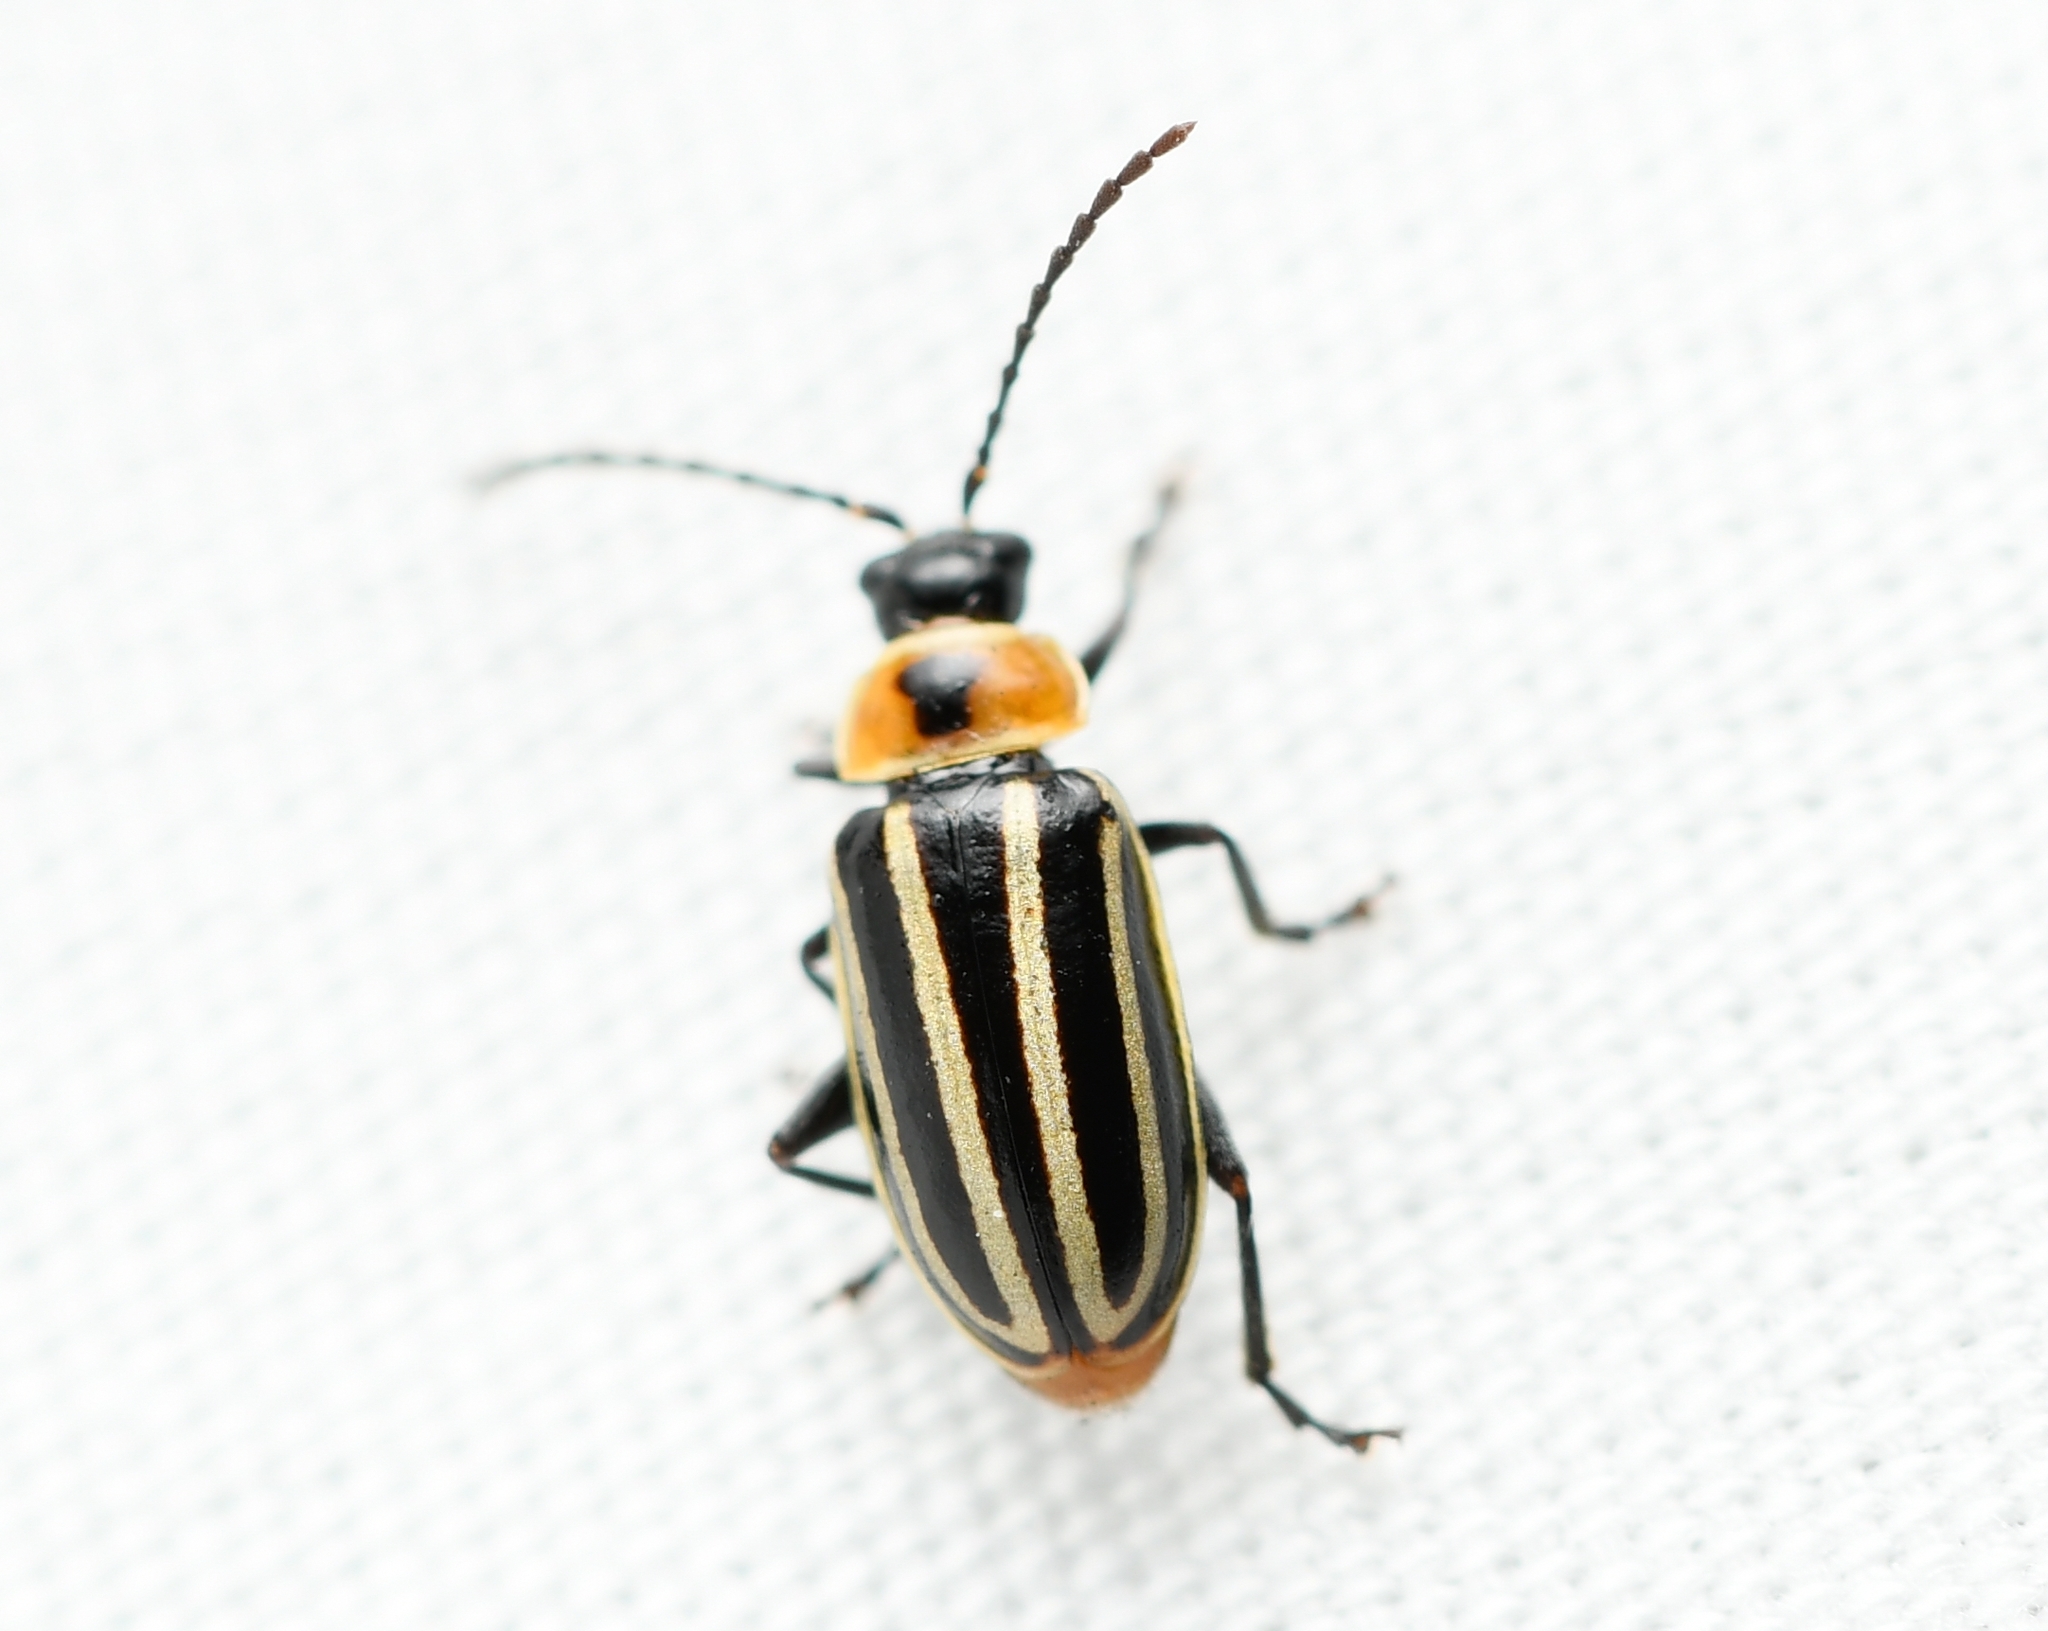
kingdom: Animalia
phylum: Arthropoda
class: Insecta
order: Coleoptera
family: Chrysomelidae
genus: Disonycha
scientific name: Disonycha pensylvanica
